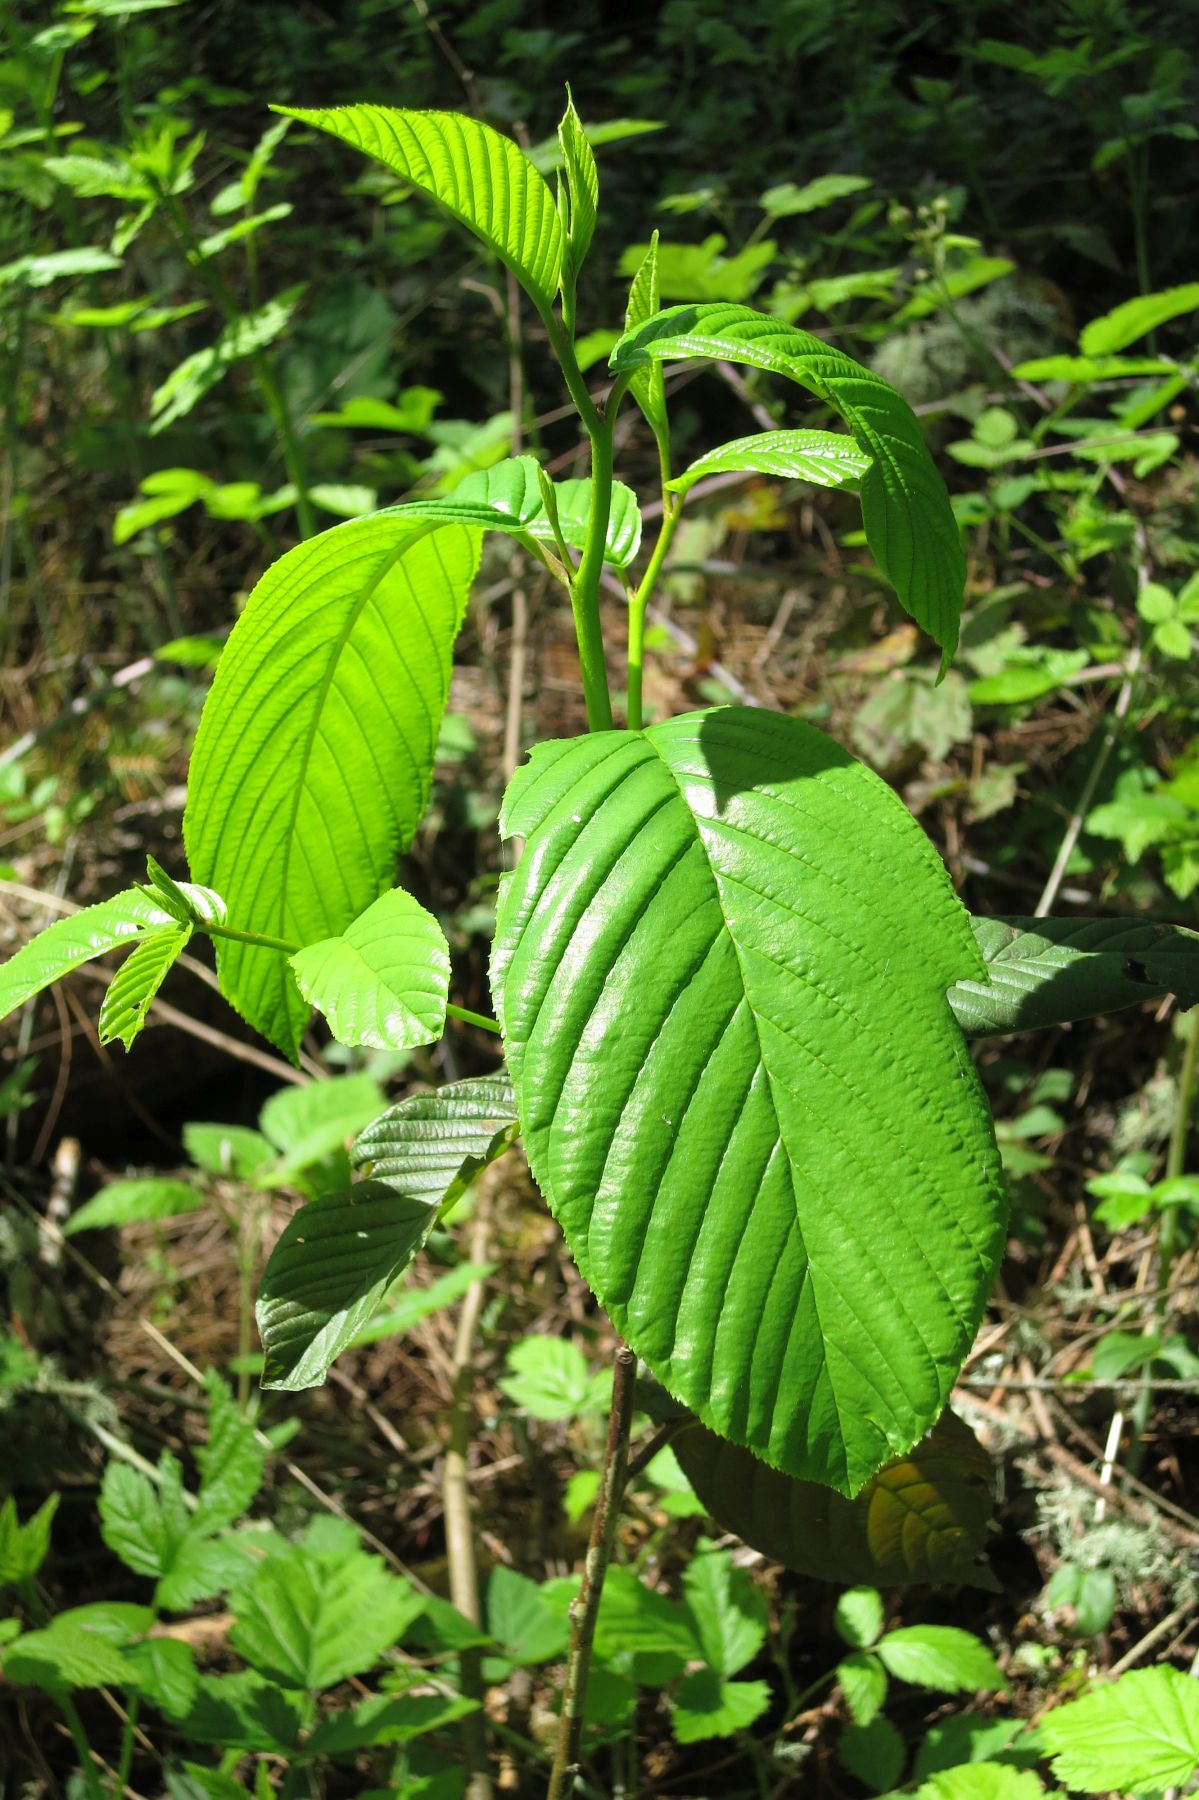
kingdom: Plantae
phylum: Tracheophyta
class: Magnoliopsida
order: Rosales
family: Rhamnaceae
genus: Frangula
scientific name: Frangula purshiana
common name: Cascara buckthorn
